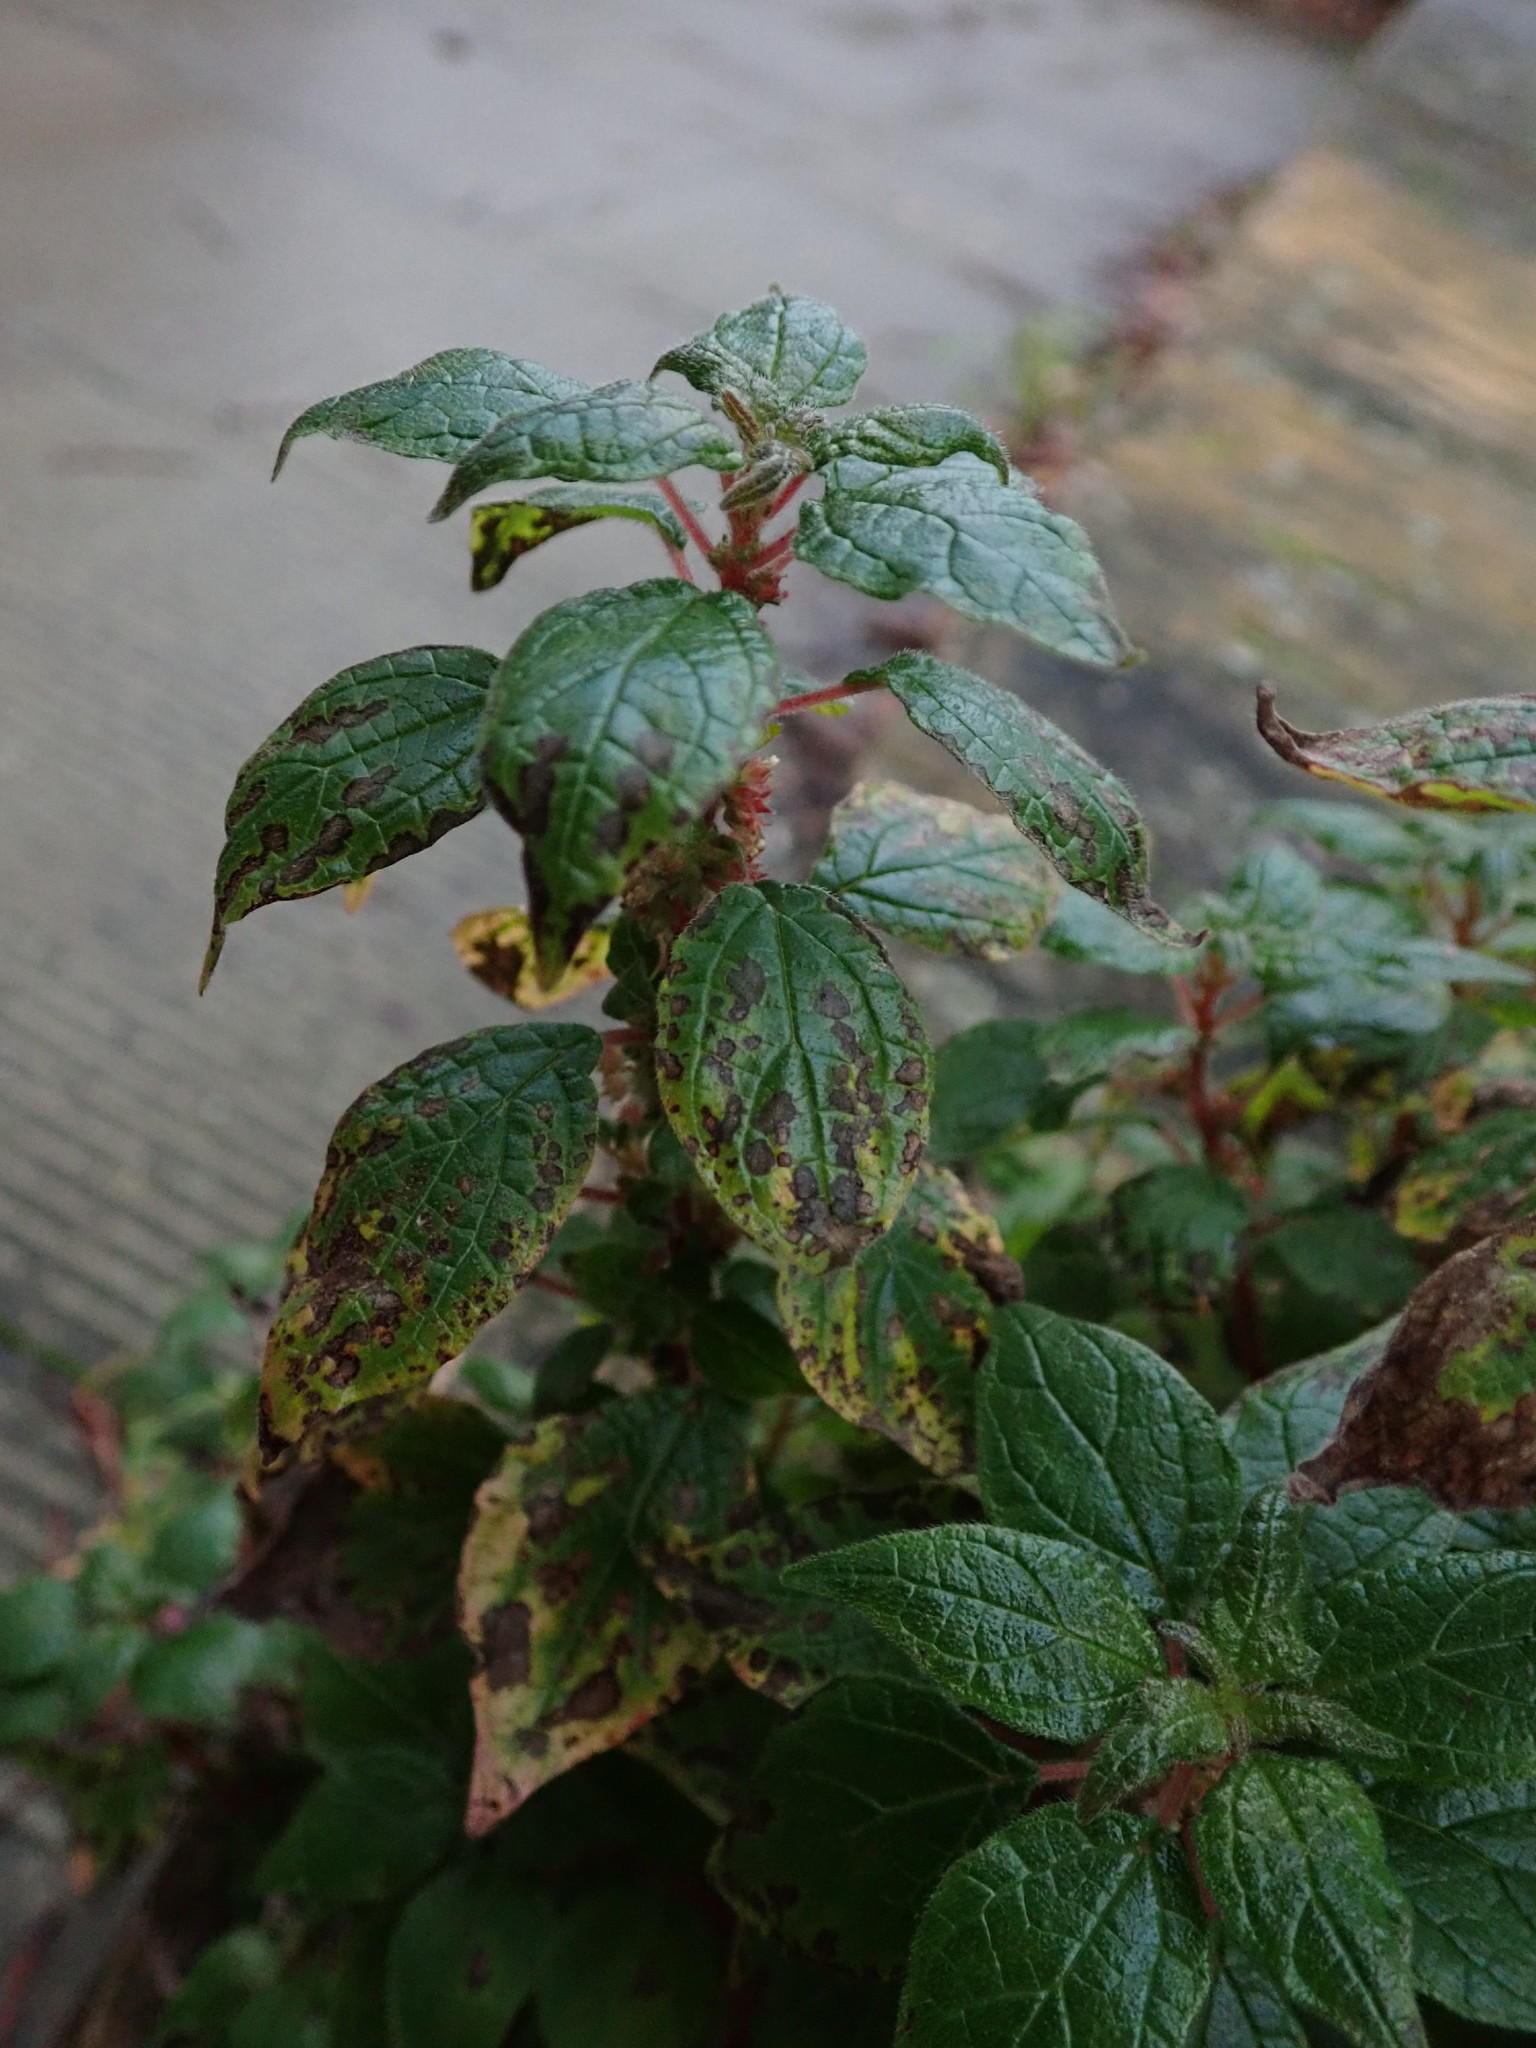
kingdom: Plantae
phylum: Tracheophyta
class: Magnoliopsida
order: Rosales
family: Urticaceae
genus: Parietaria
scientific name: Parietaria judaica
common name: Pellitory-of-the-wall
